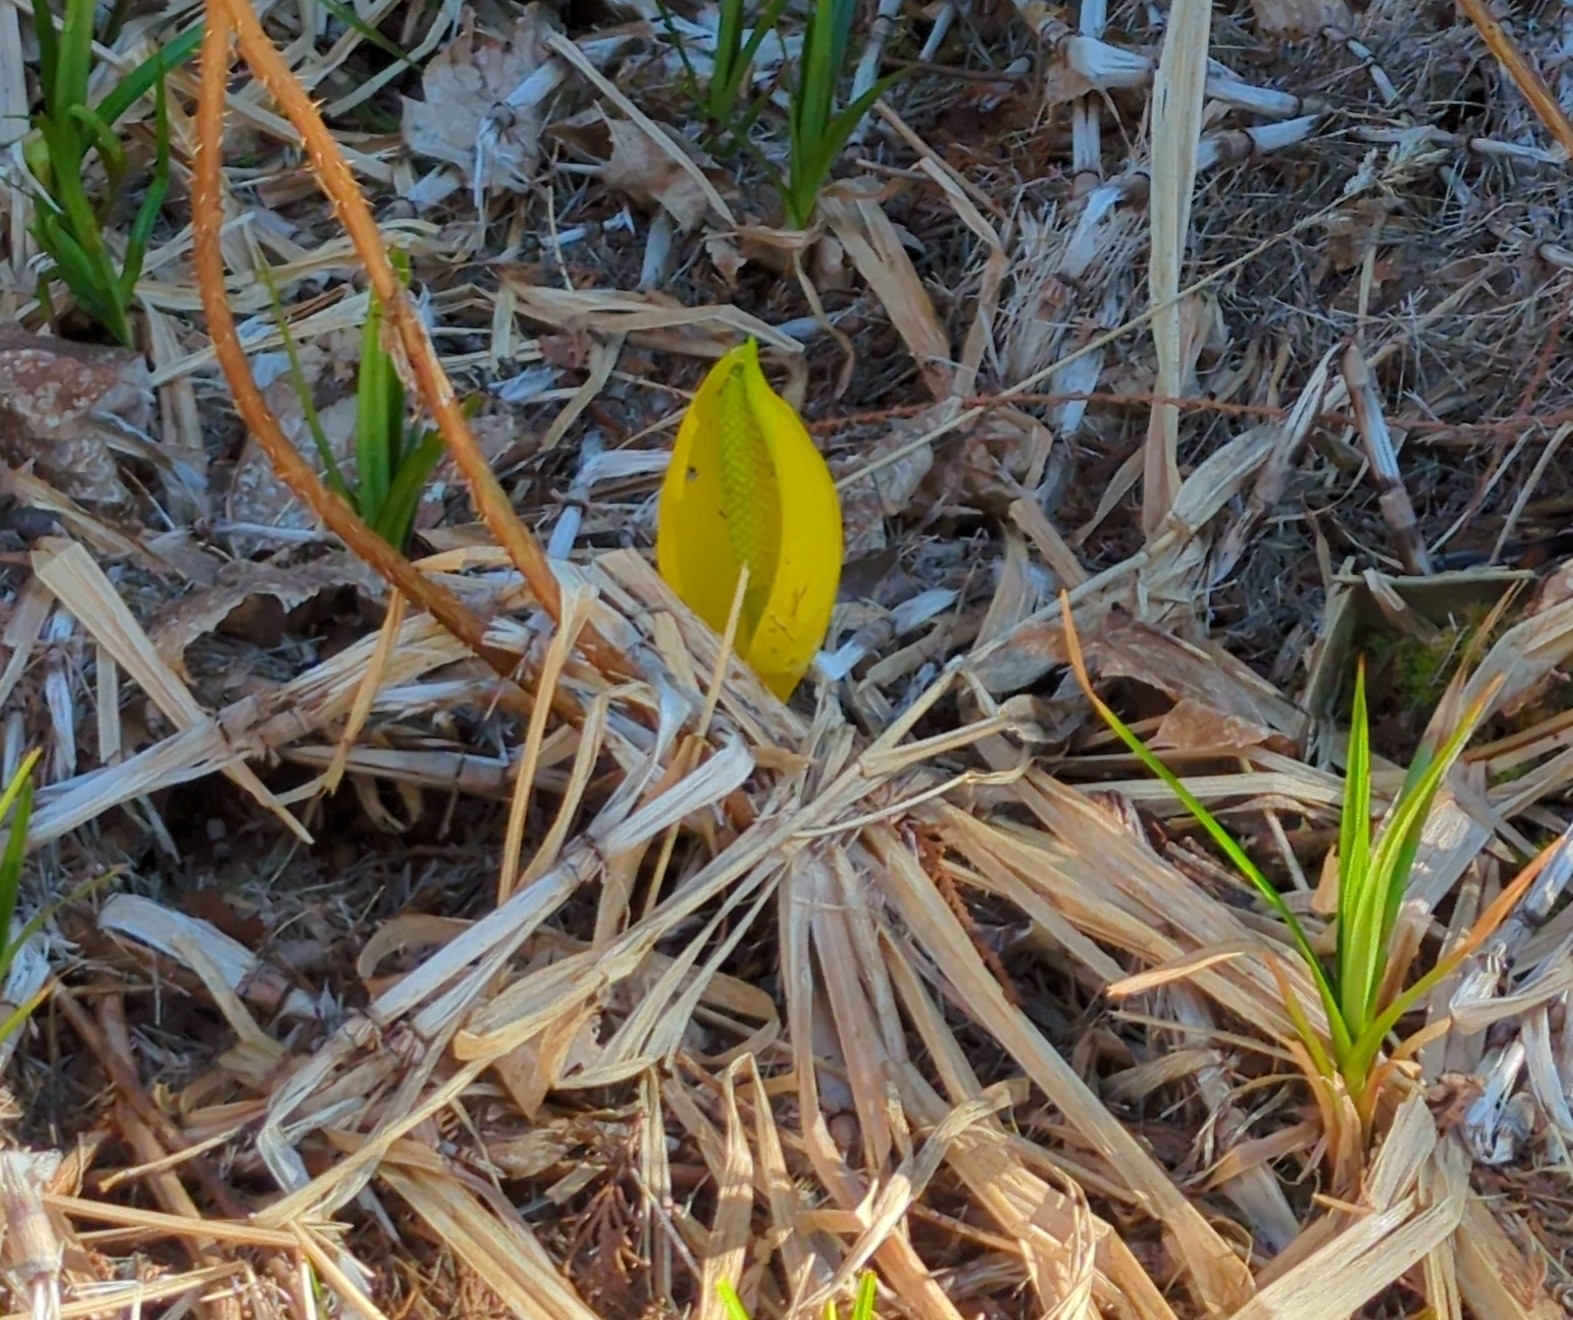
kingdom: Plantae
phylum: Tracheophyta
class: Liliopsida
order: Alismatales
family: Araceae
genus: Lysichiton
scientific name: Lysichiton americanus
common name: American skunk cabbage
